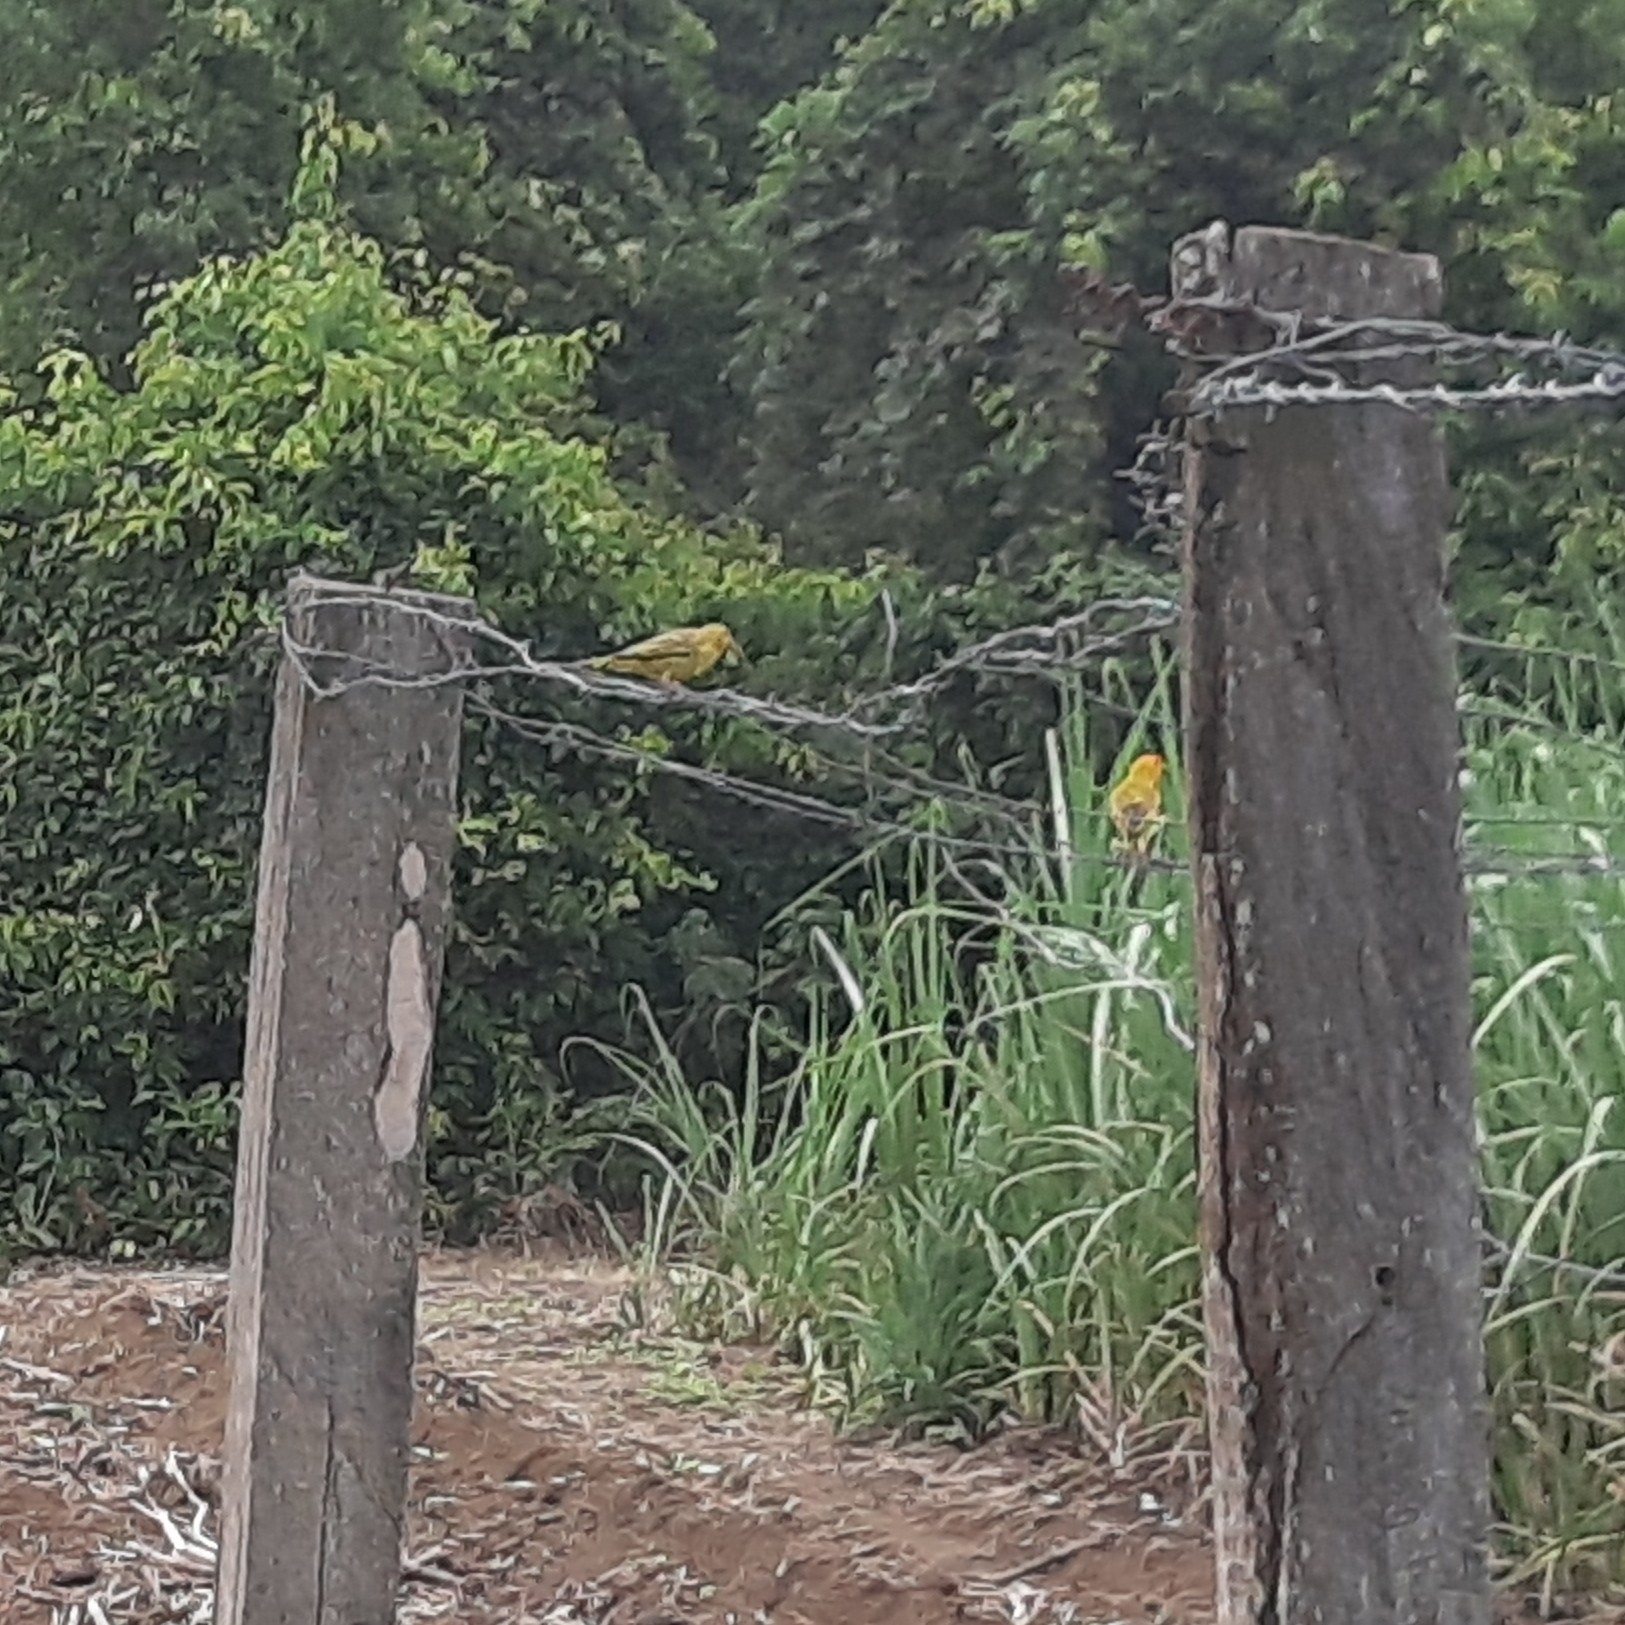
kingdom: Animalia
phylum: Chordata
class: Aves
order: Passeriformes
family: Thraupidae
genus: Sicalis
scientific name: Sicalis flaveola
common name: Saffron finch
